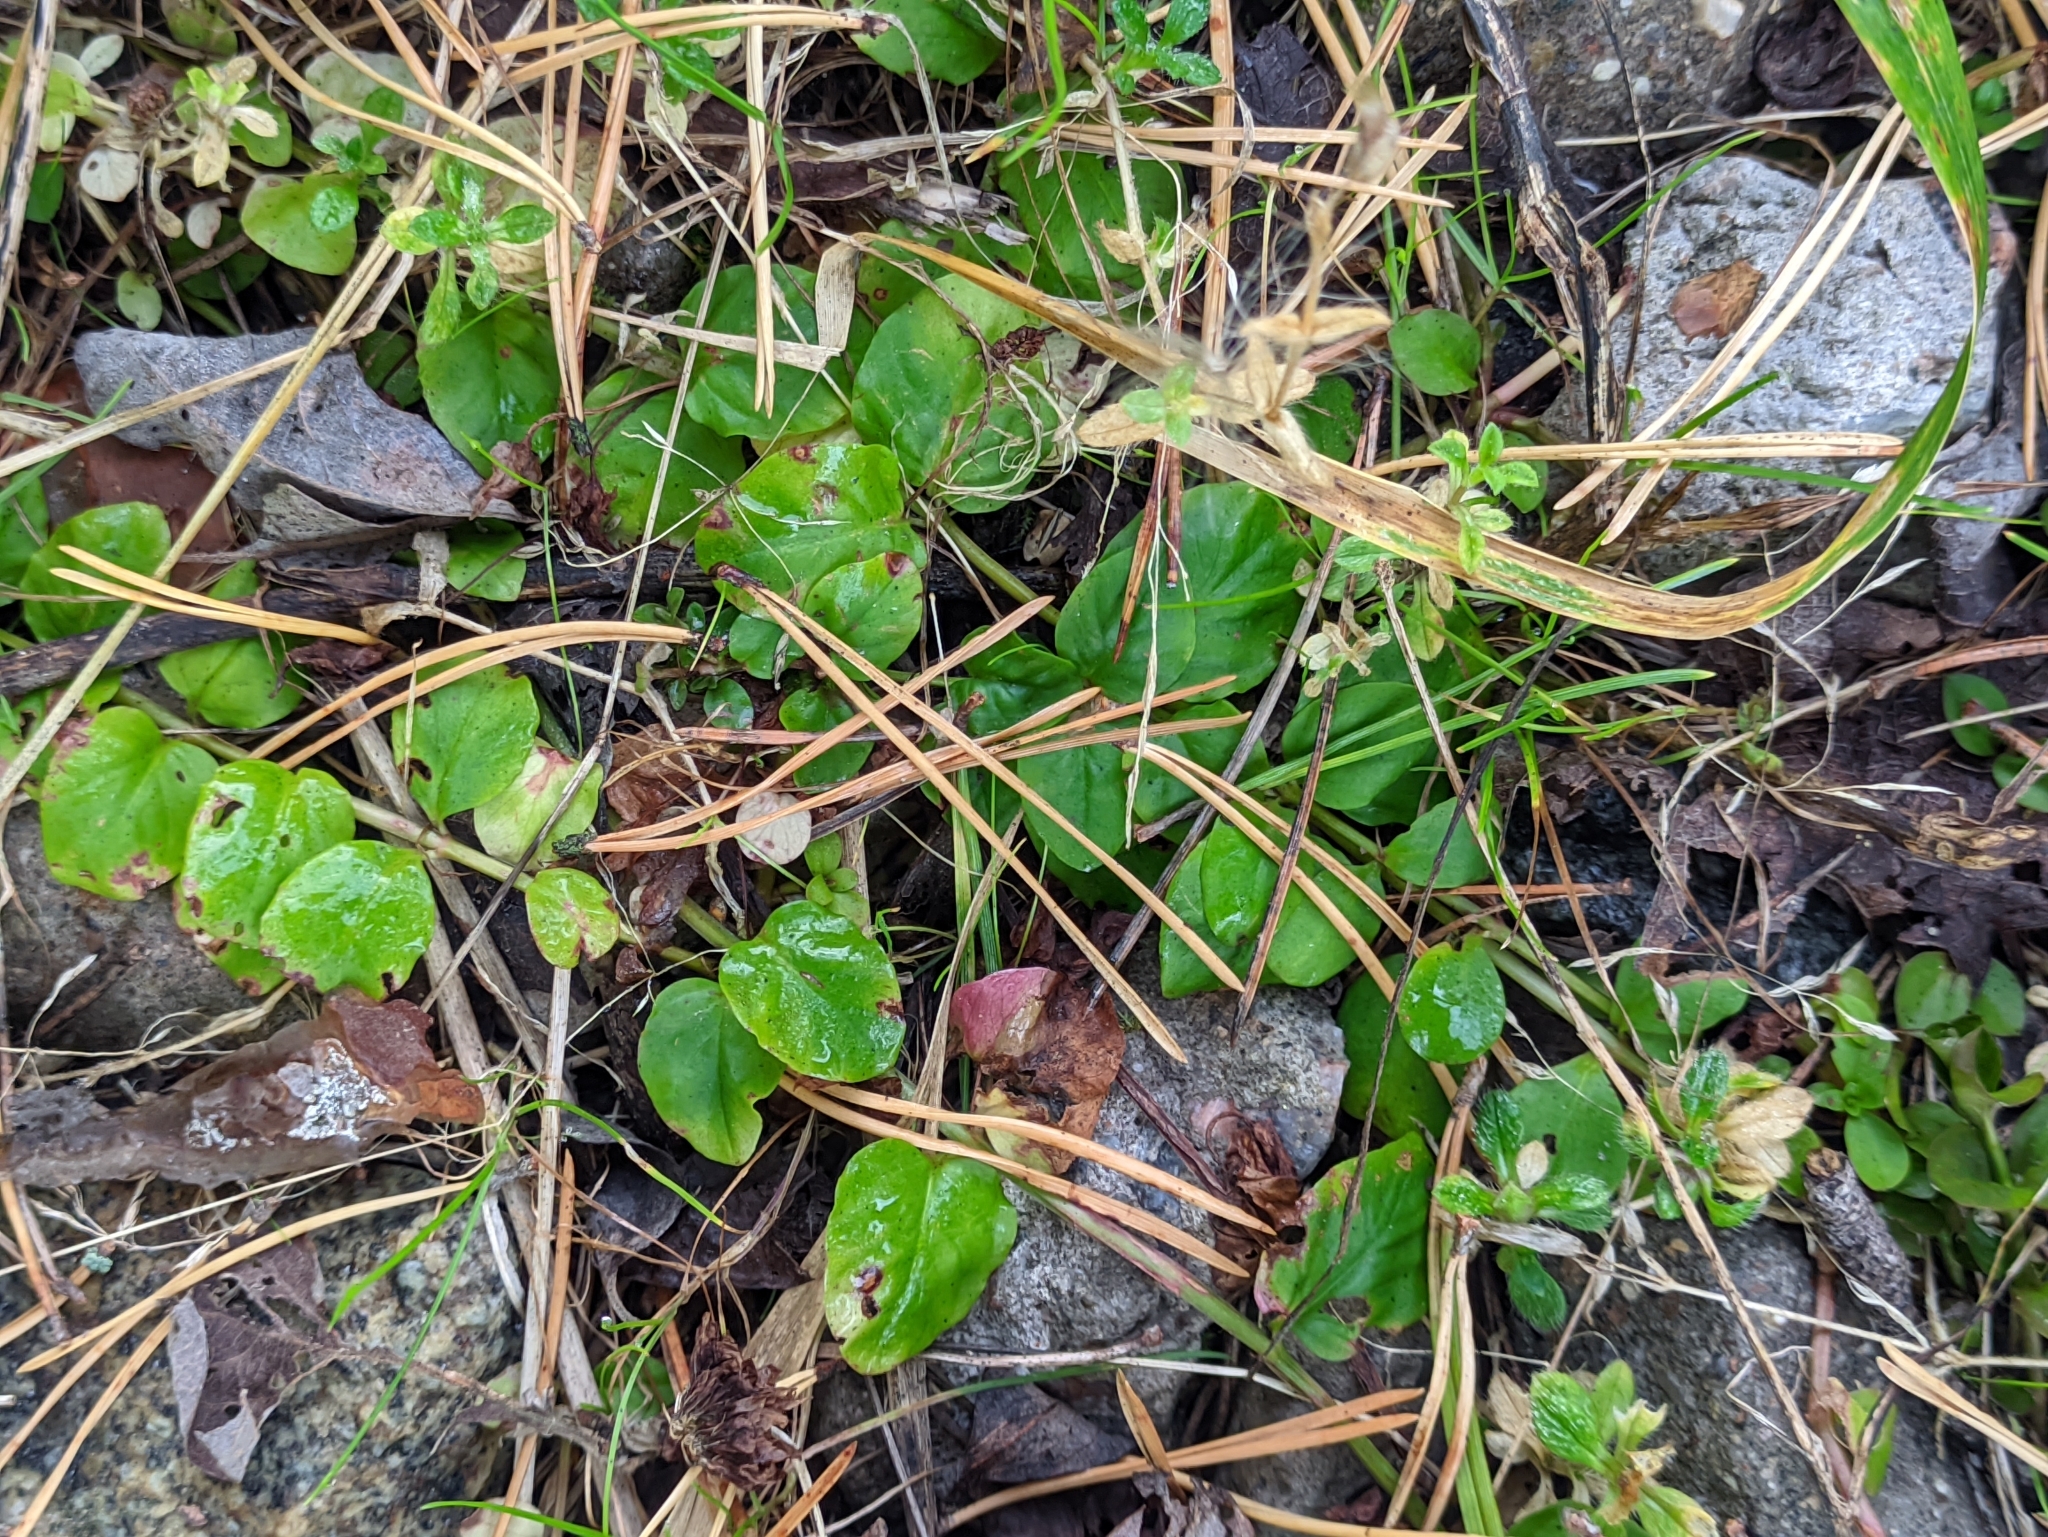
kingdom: Plantae
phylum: Tracheophyta
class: Magnoliopsida
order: Ericales
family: Primulaceae
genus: Lysimachia
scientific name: Lysimachia nummularia
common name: Moneywort
